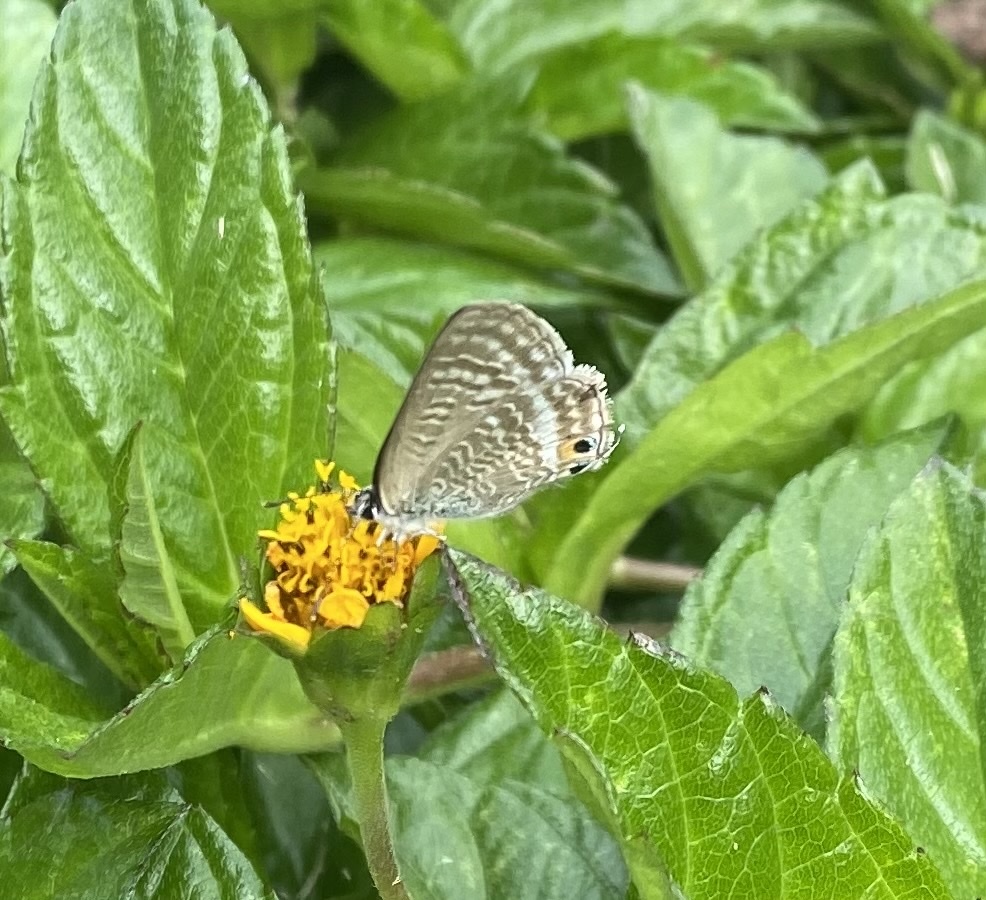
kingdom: Animalia
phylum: Arthropoda
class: Insecta
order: Lepidoptera
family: Lycaenidae
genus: Lampides
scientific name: Lampides boeticus
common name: Long-tailed blue
